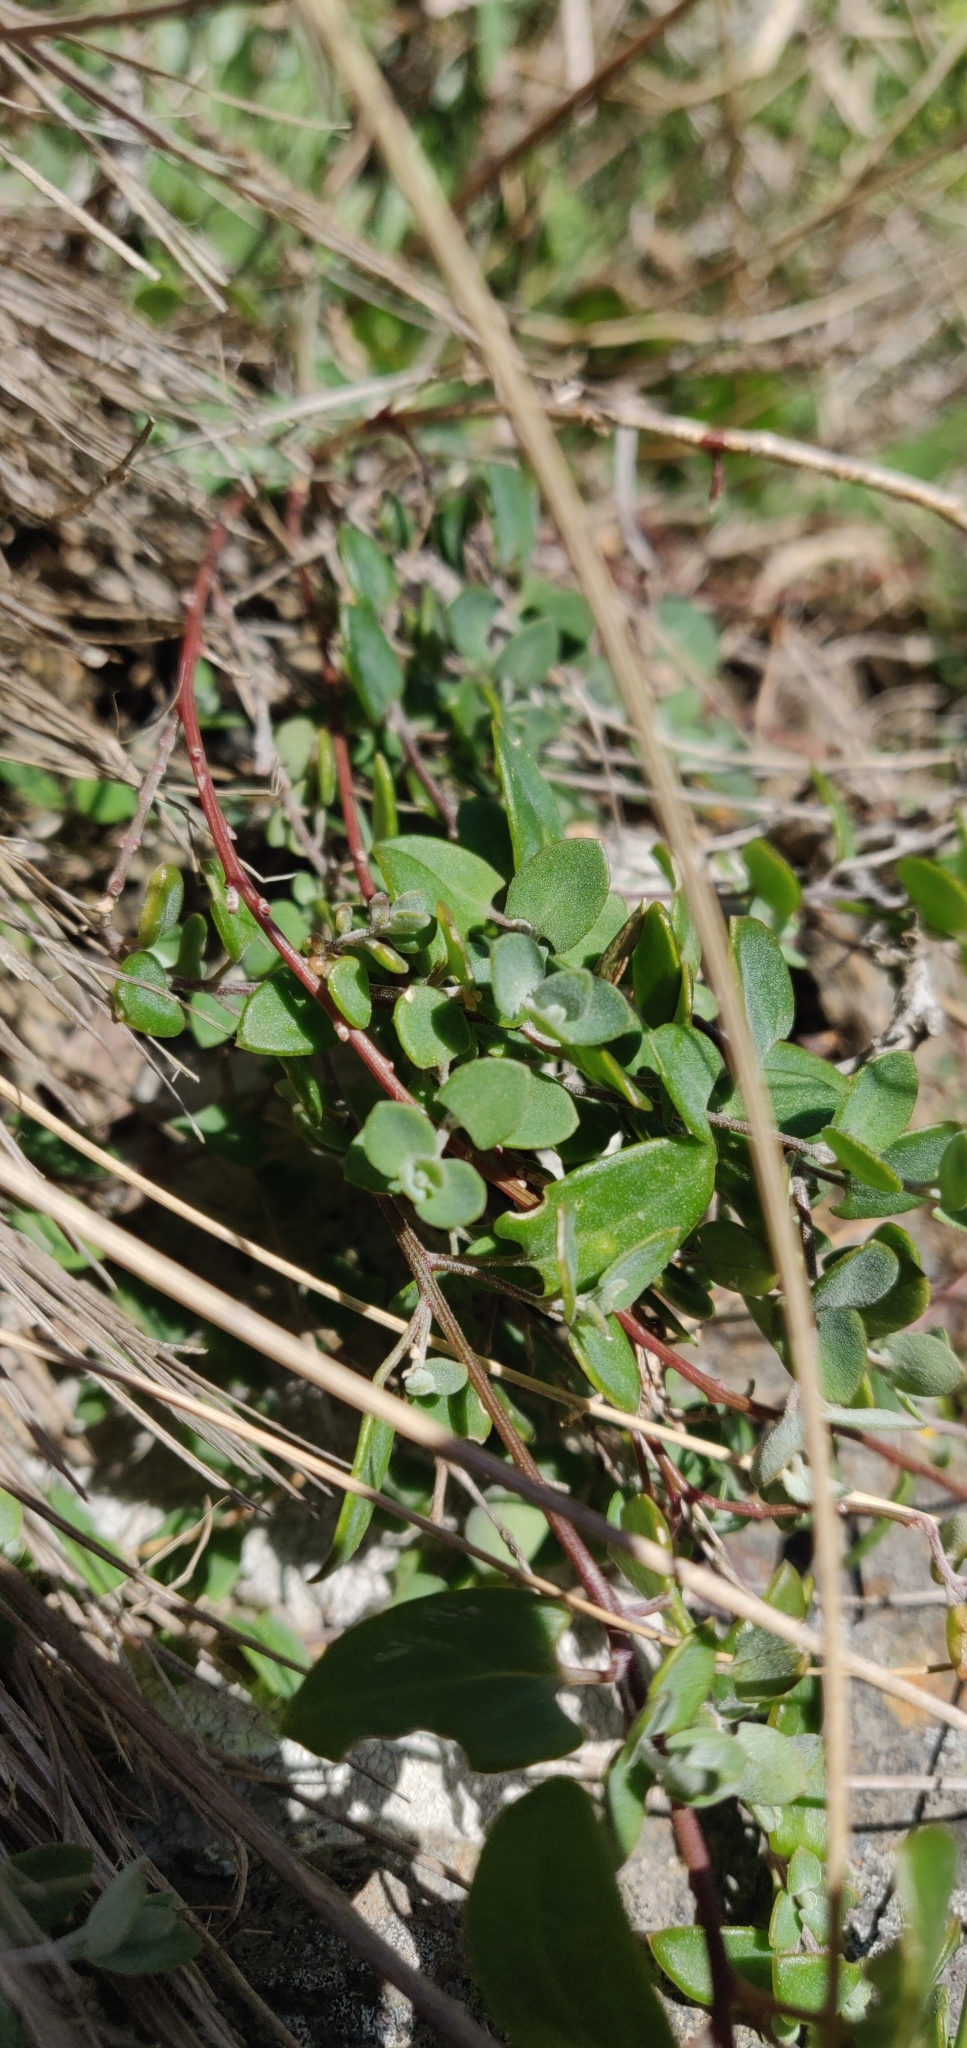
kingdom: Plantae
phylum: Tracheophyta
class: Magnoliopsida
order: Caryophyllales
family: Amaranthaceae
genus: Chenopodium
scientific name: Chenopodium triandrum
